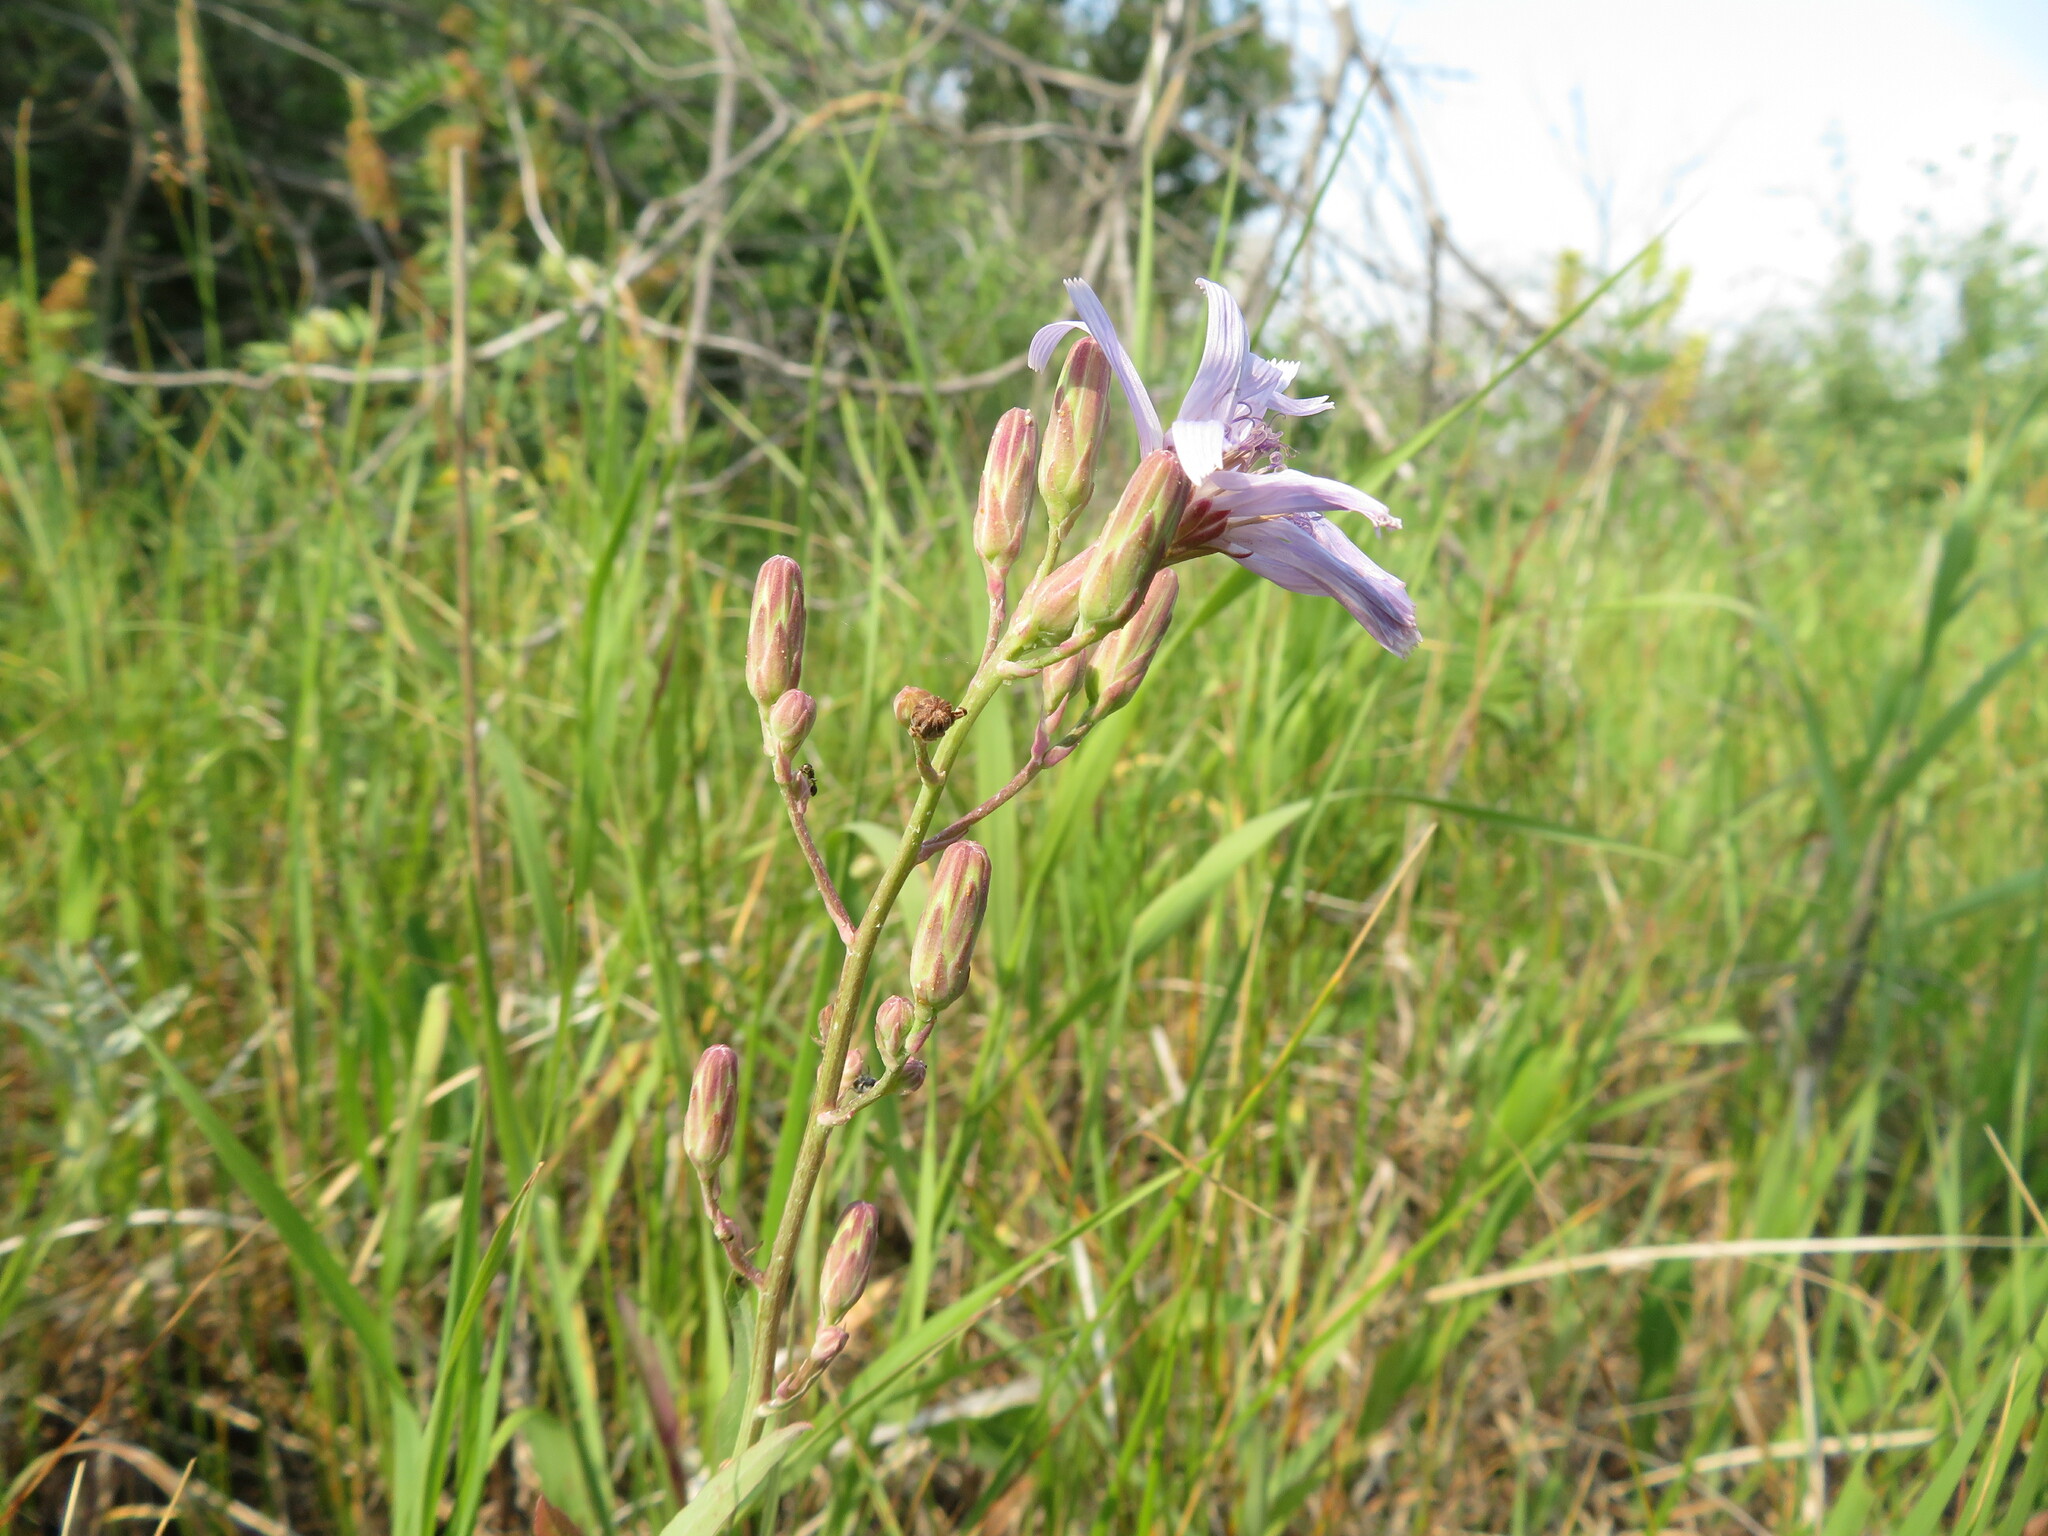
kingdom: Plantae
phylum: Tracheophyta
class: Magnoliopsida
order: Asterales
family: Asteraceae
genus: Lactuca
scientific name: Lactuca pulchella
